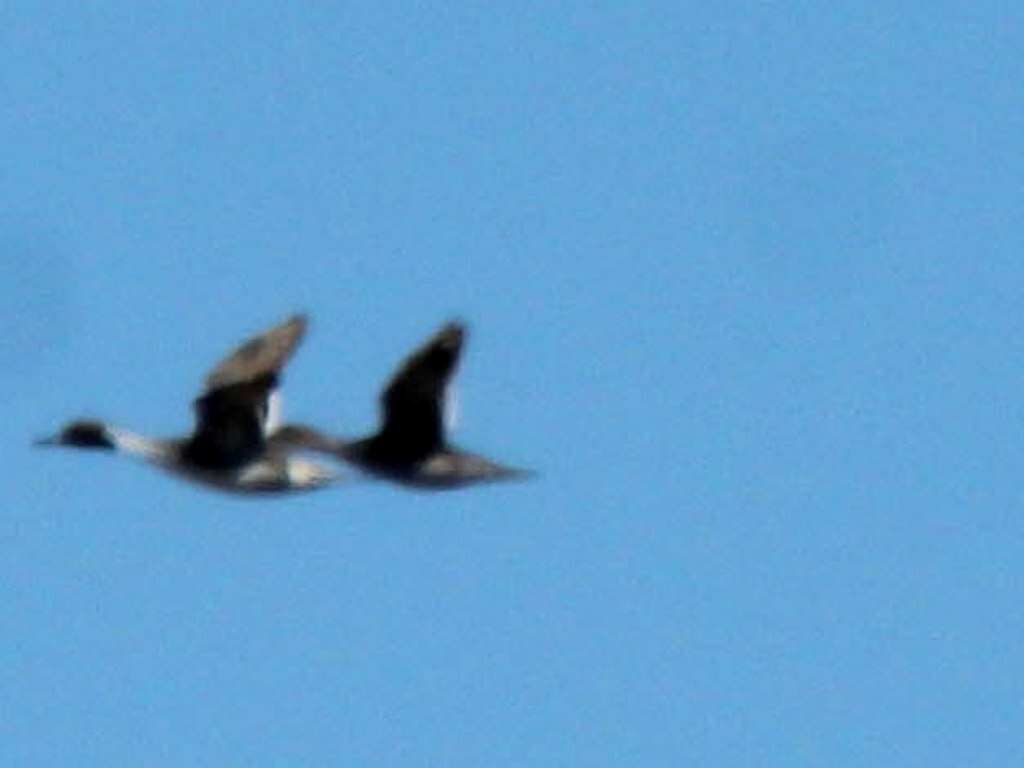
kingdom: Animalia
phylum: Chordata
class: Aves
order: Anseriformes
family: Anatidae
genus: Anas
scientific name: Anas acuta
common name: Northern pintail
